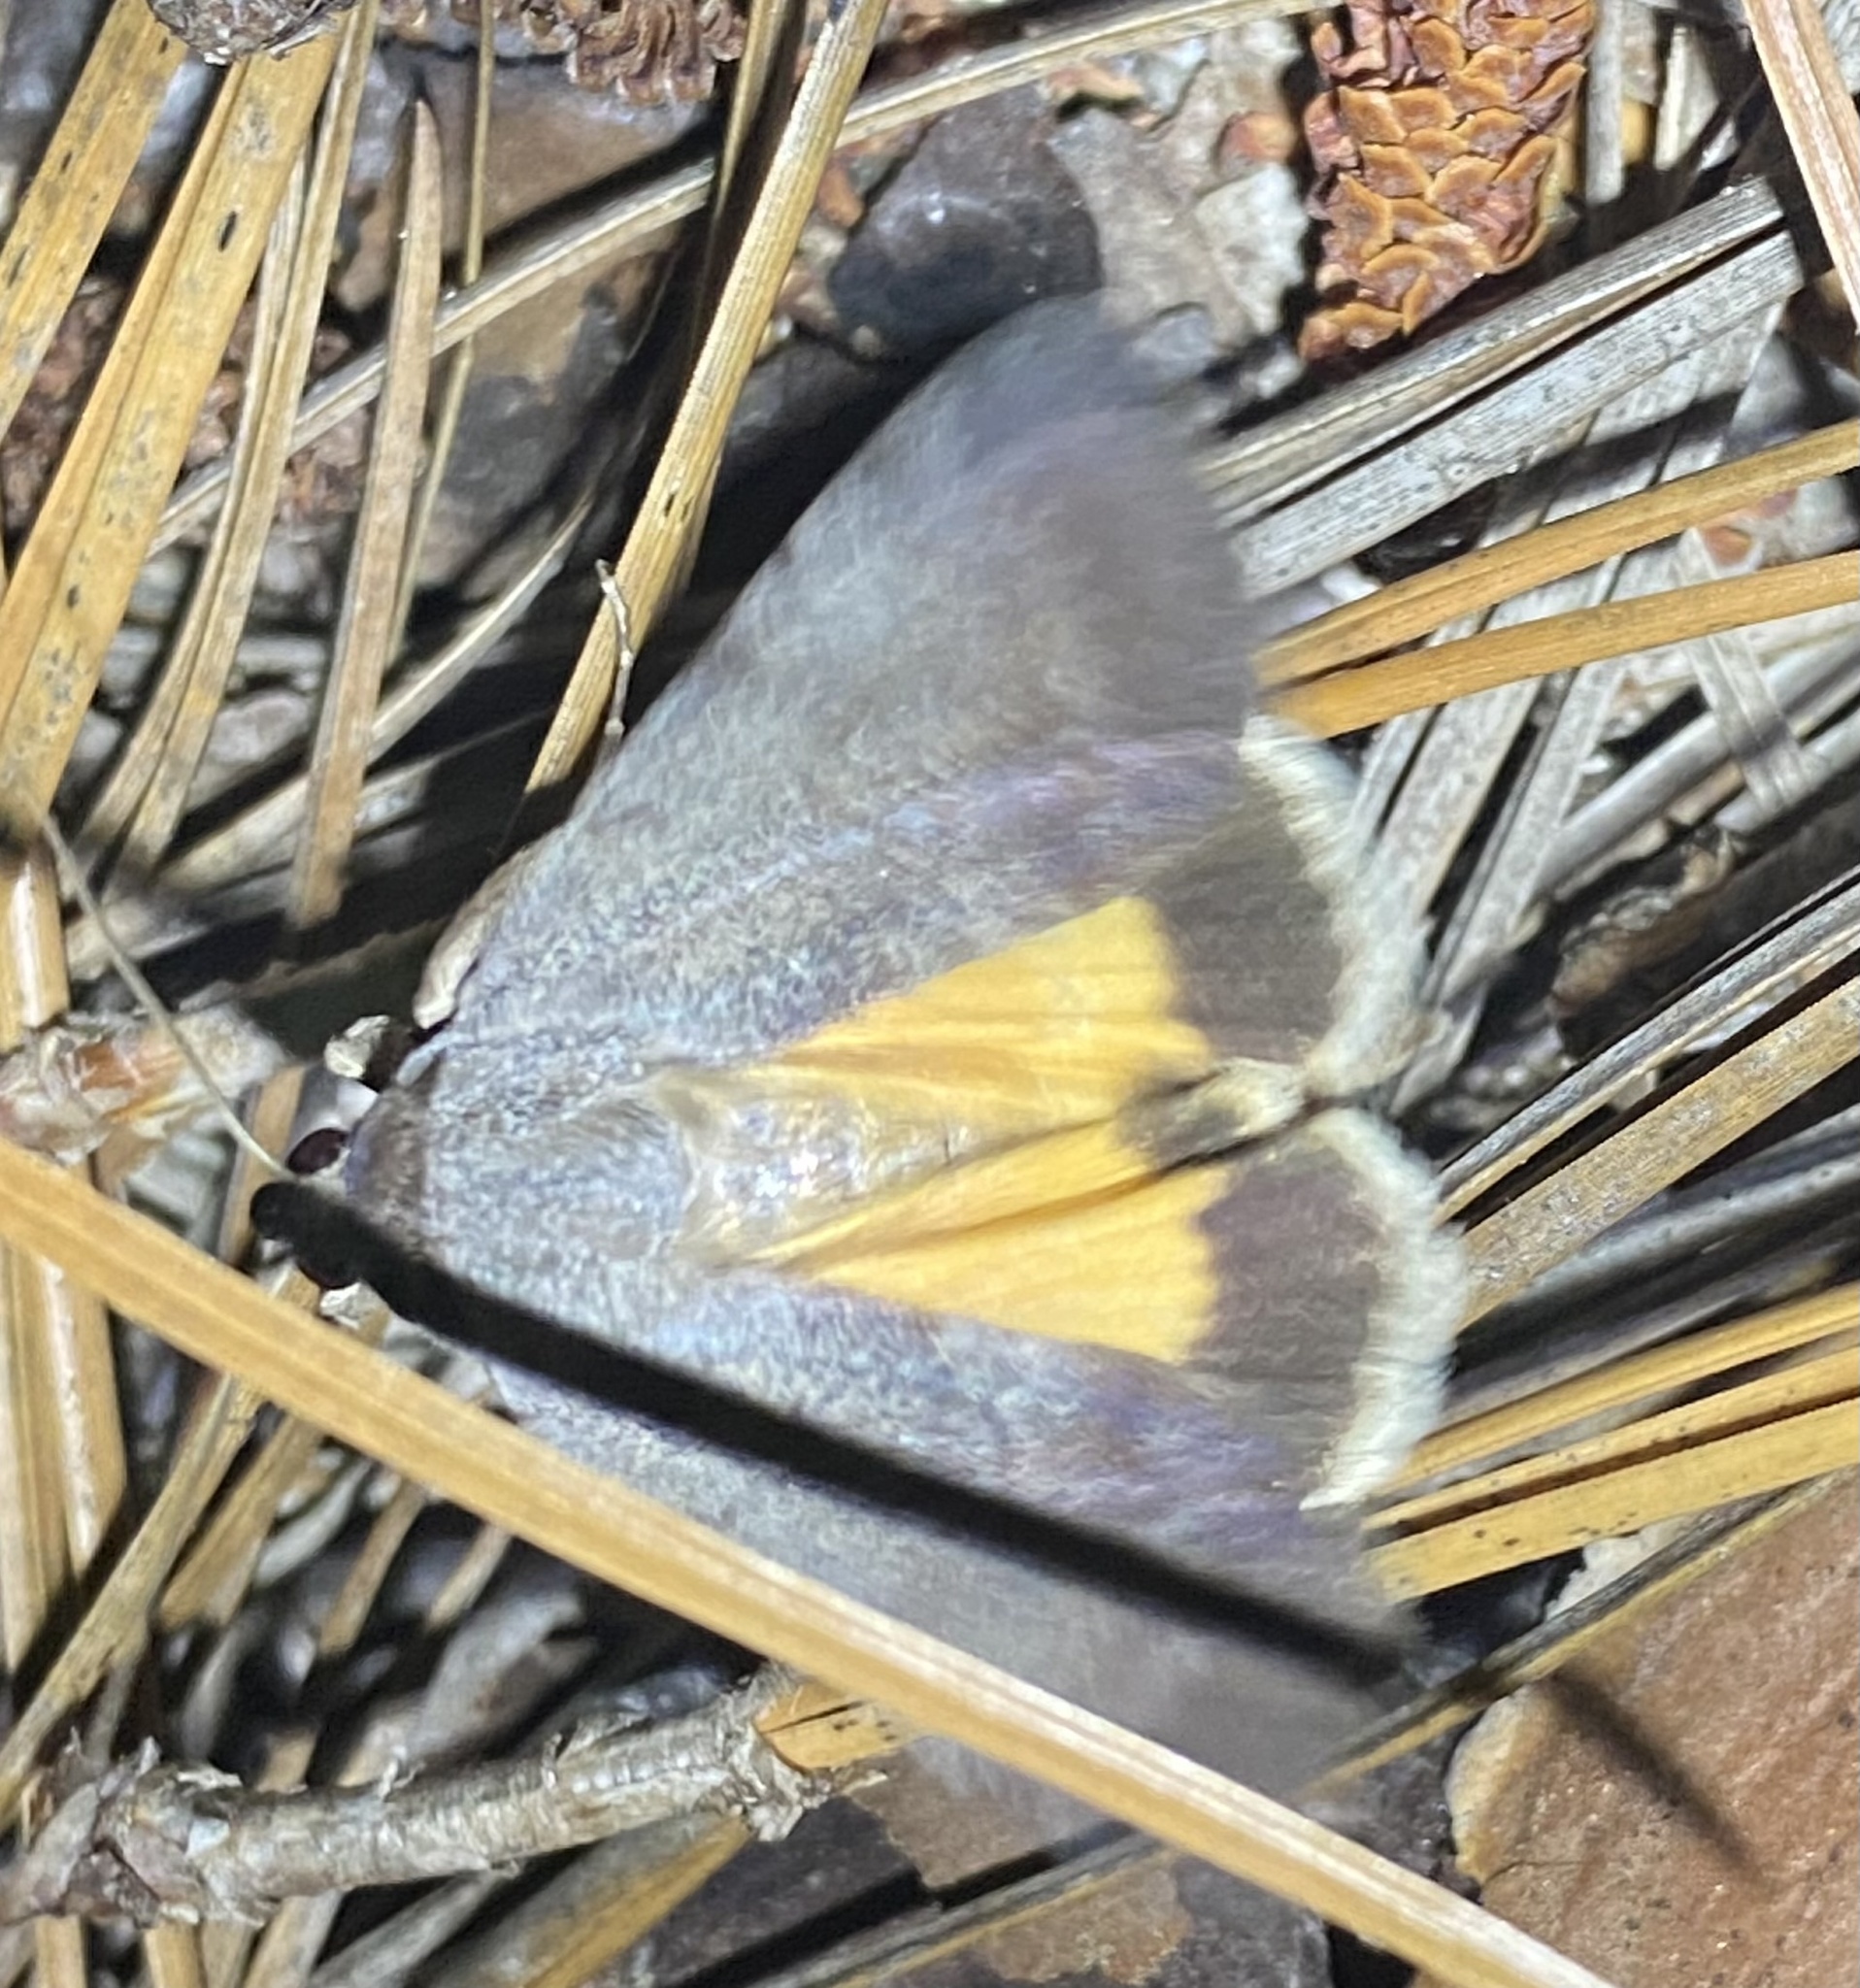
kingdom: Animalia
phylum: Arthropoda
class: Insecta
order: Lepidoptera
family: Erebidae
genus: Catocala
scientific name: Catocala messalina
